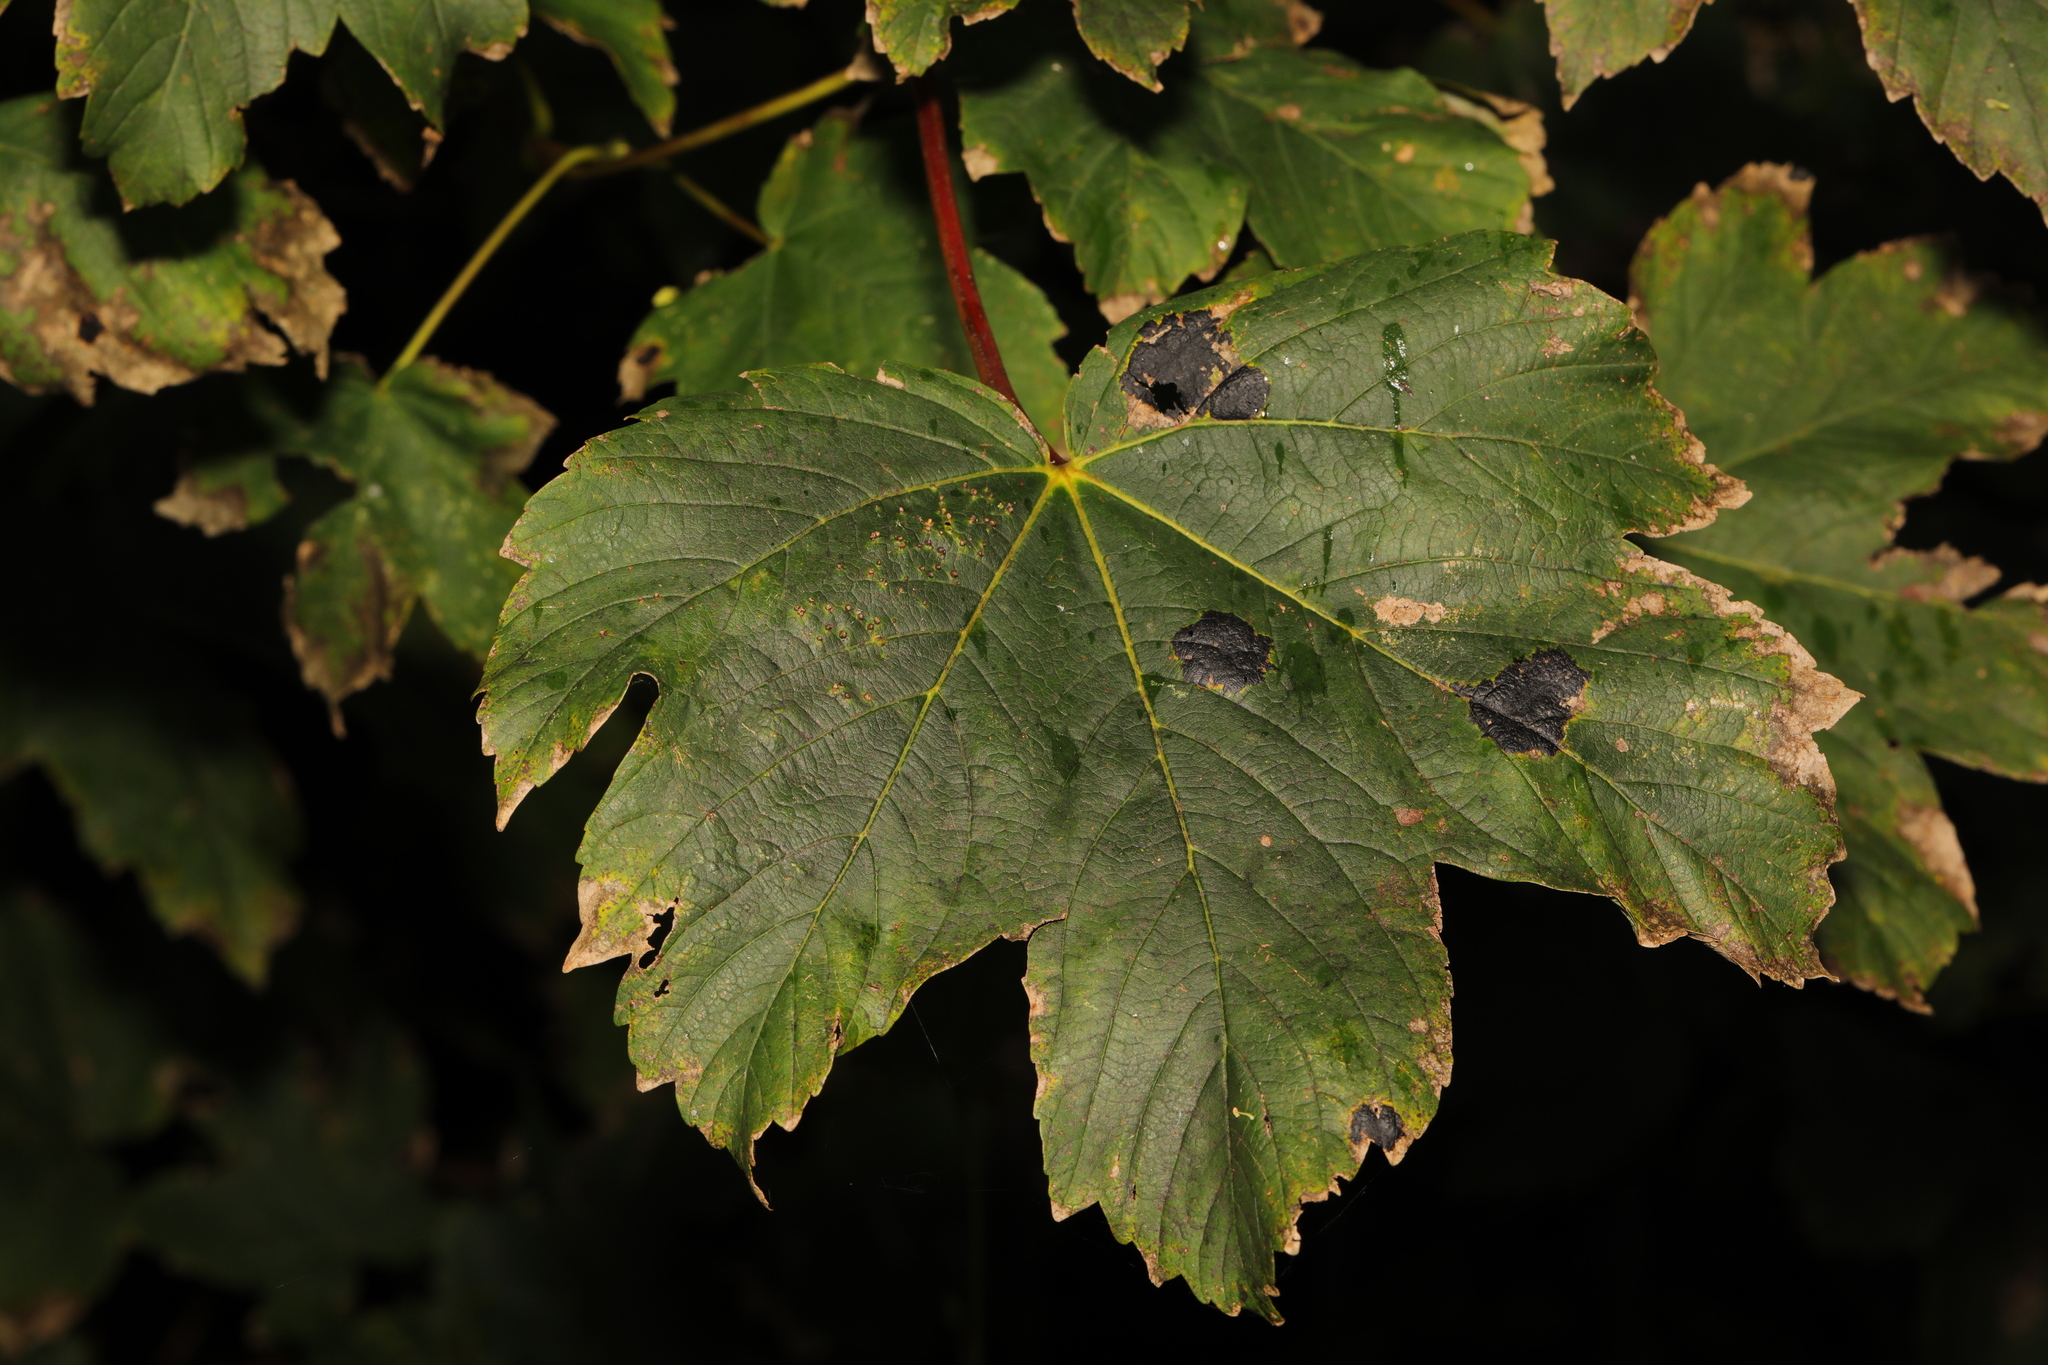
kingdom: Plantae
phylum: Tracheophyta
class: Magnoliopsida
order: Sapindales
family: Sapindaceae
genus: Acer
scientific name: Acer pseudoplatanus
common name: Sycamore
